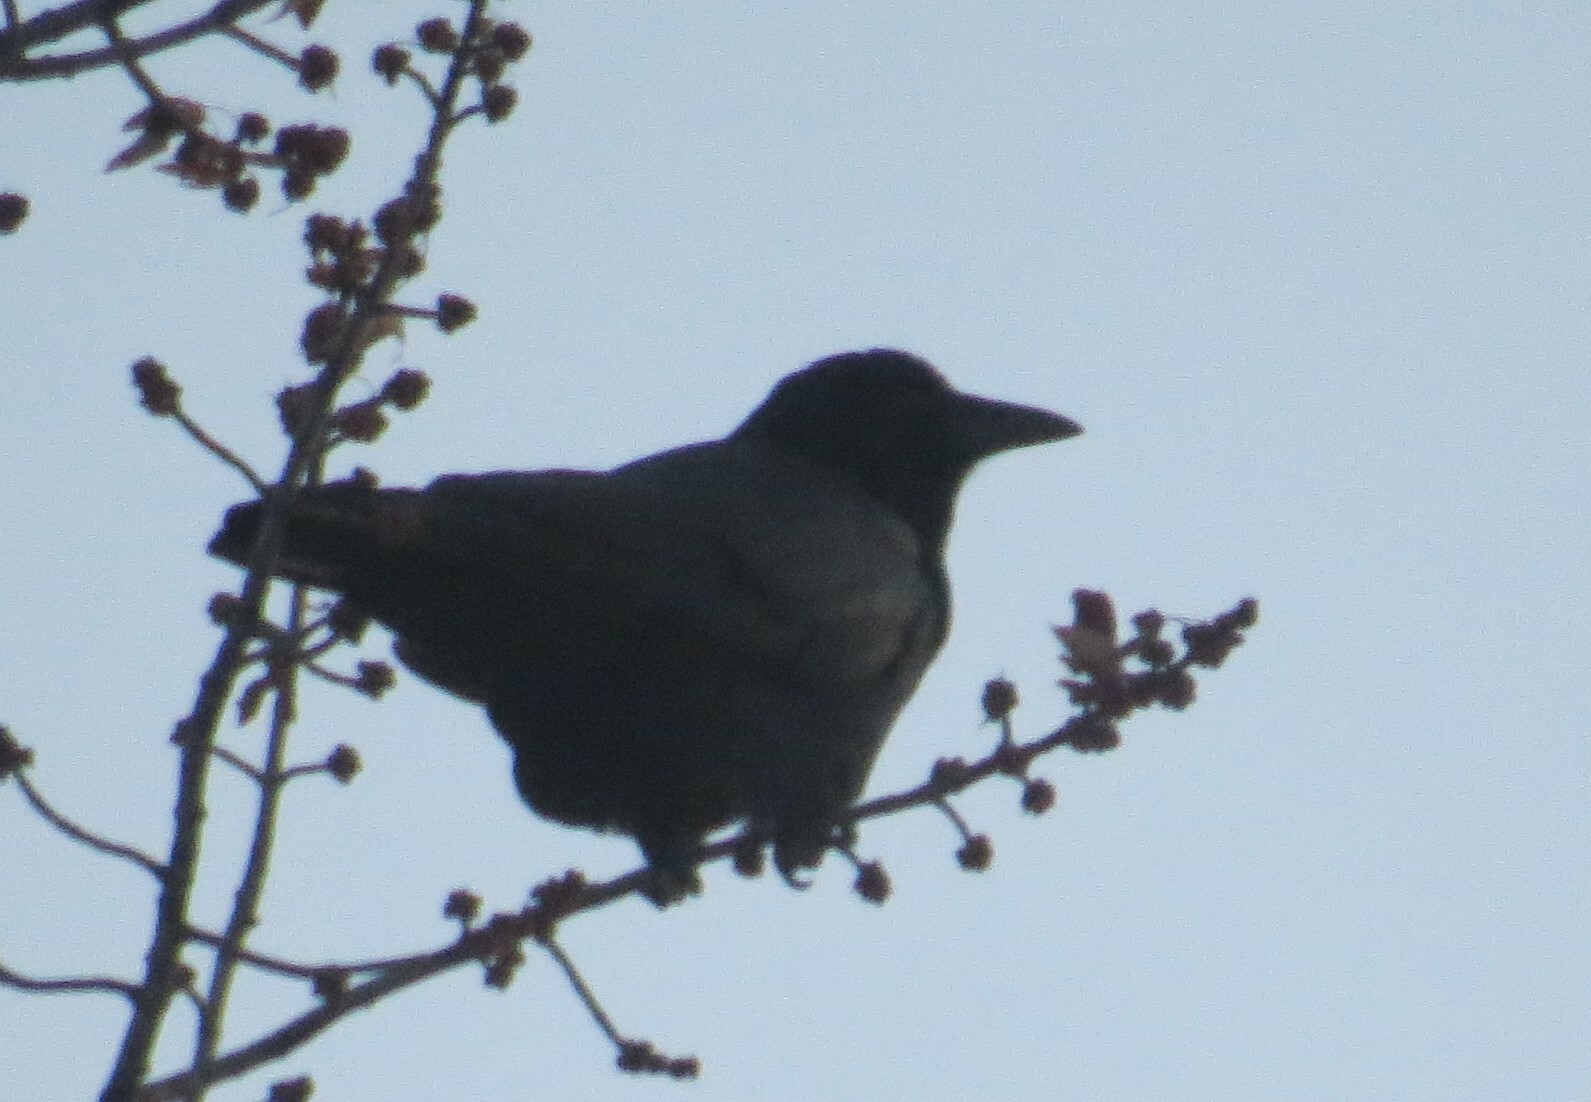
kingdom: Animalia
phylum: Chordata
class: Aves
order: Passeriformes
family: Corvidae
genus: Corvus
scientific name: Corvus brachyrhynchos
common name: American crow
